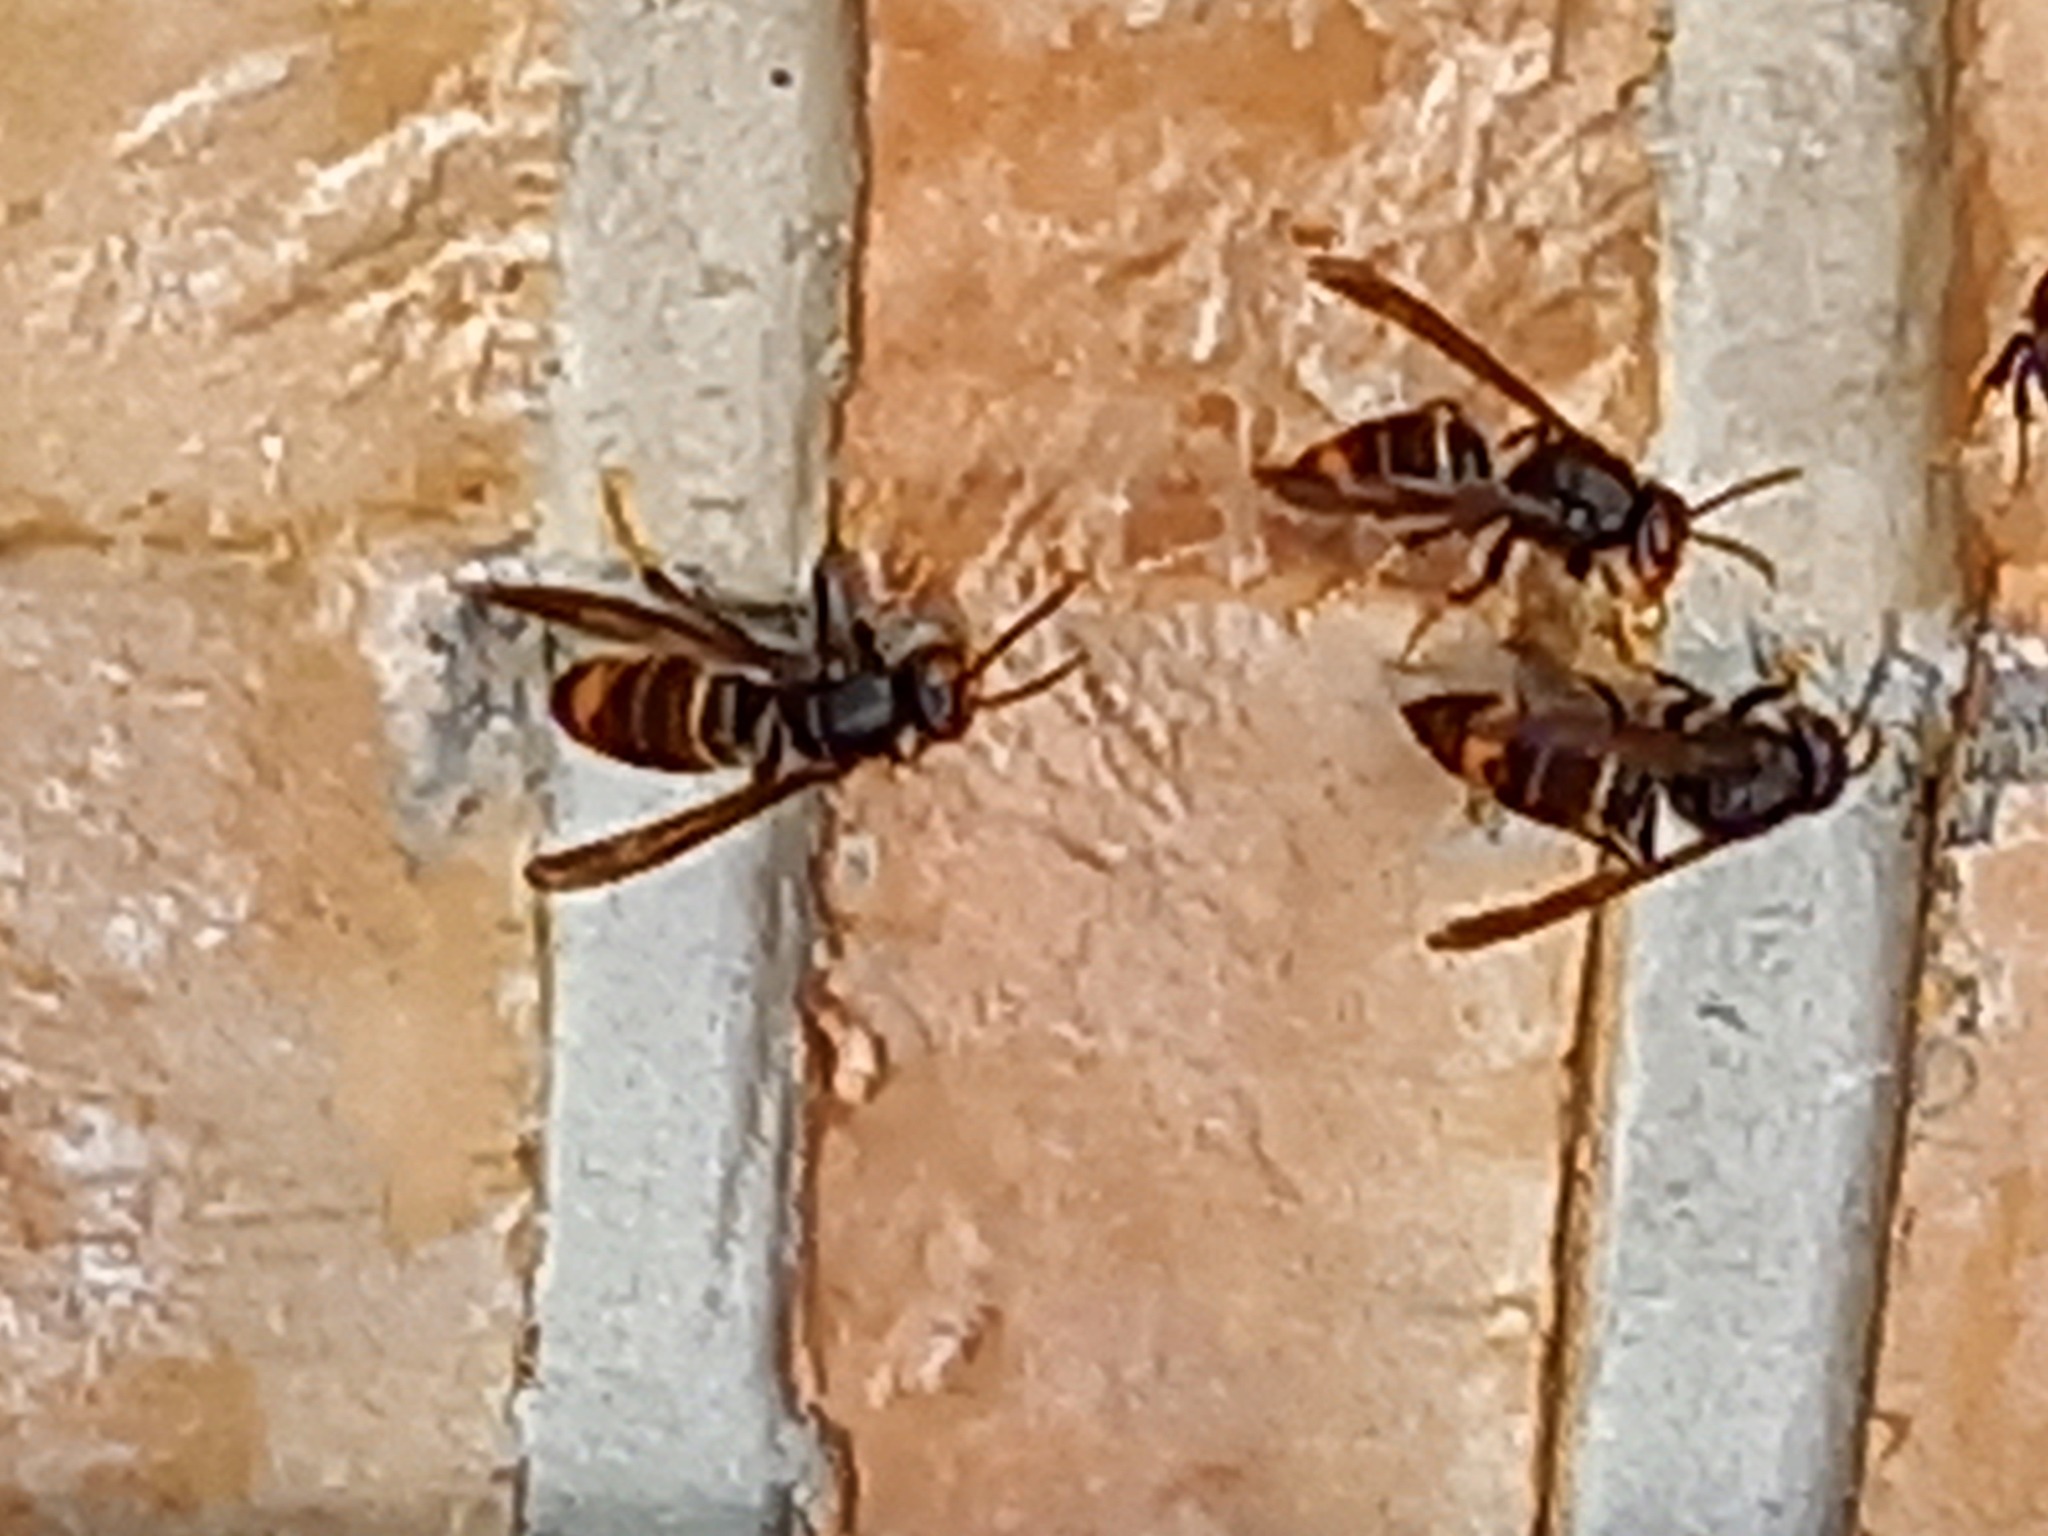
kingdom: Animalia
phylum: Arthropoda
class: Insecta
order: Hymenoptera
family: Vespidae
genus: Vespa
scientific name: Vespa velutina
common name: Asian hornet
